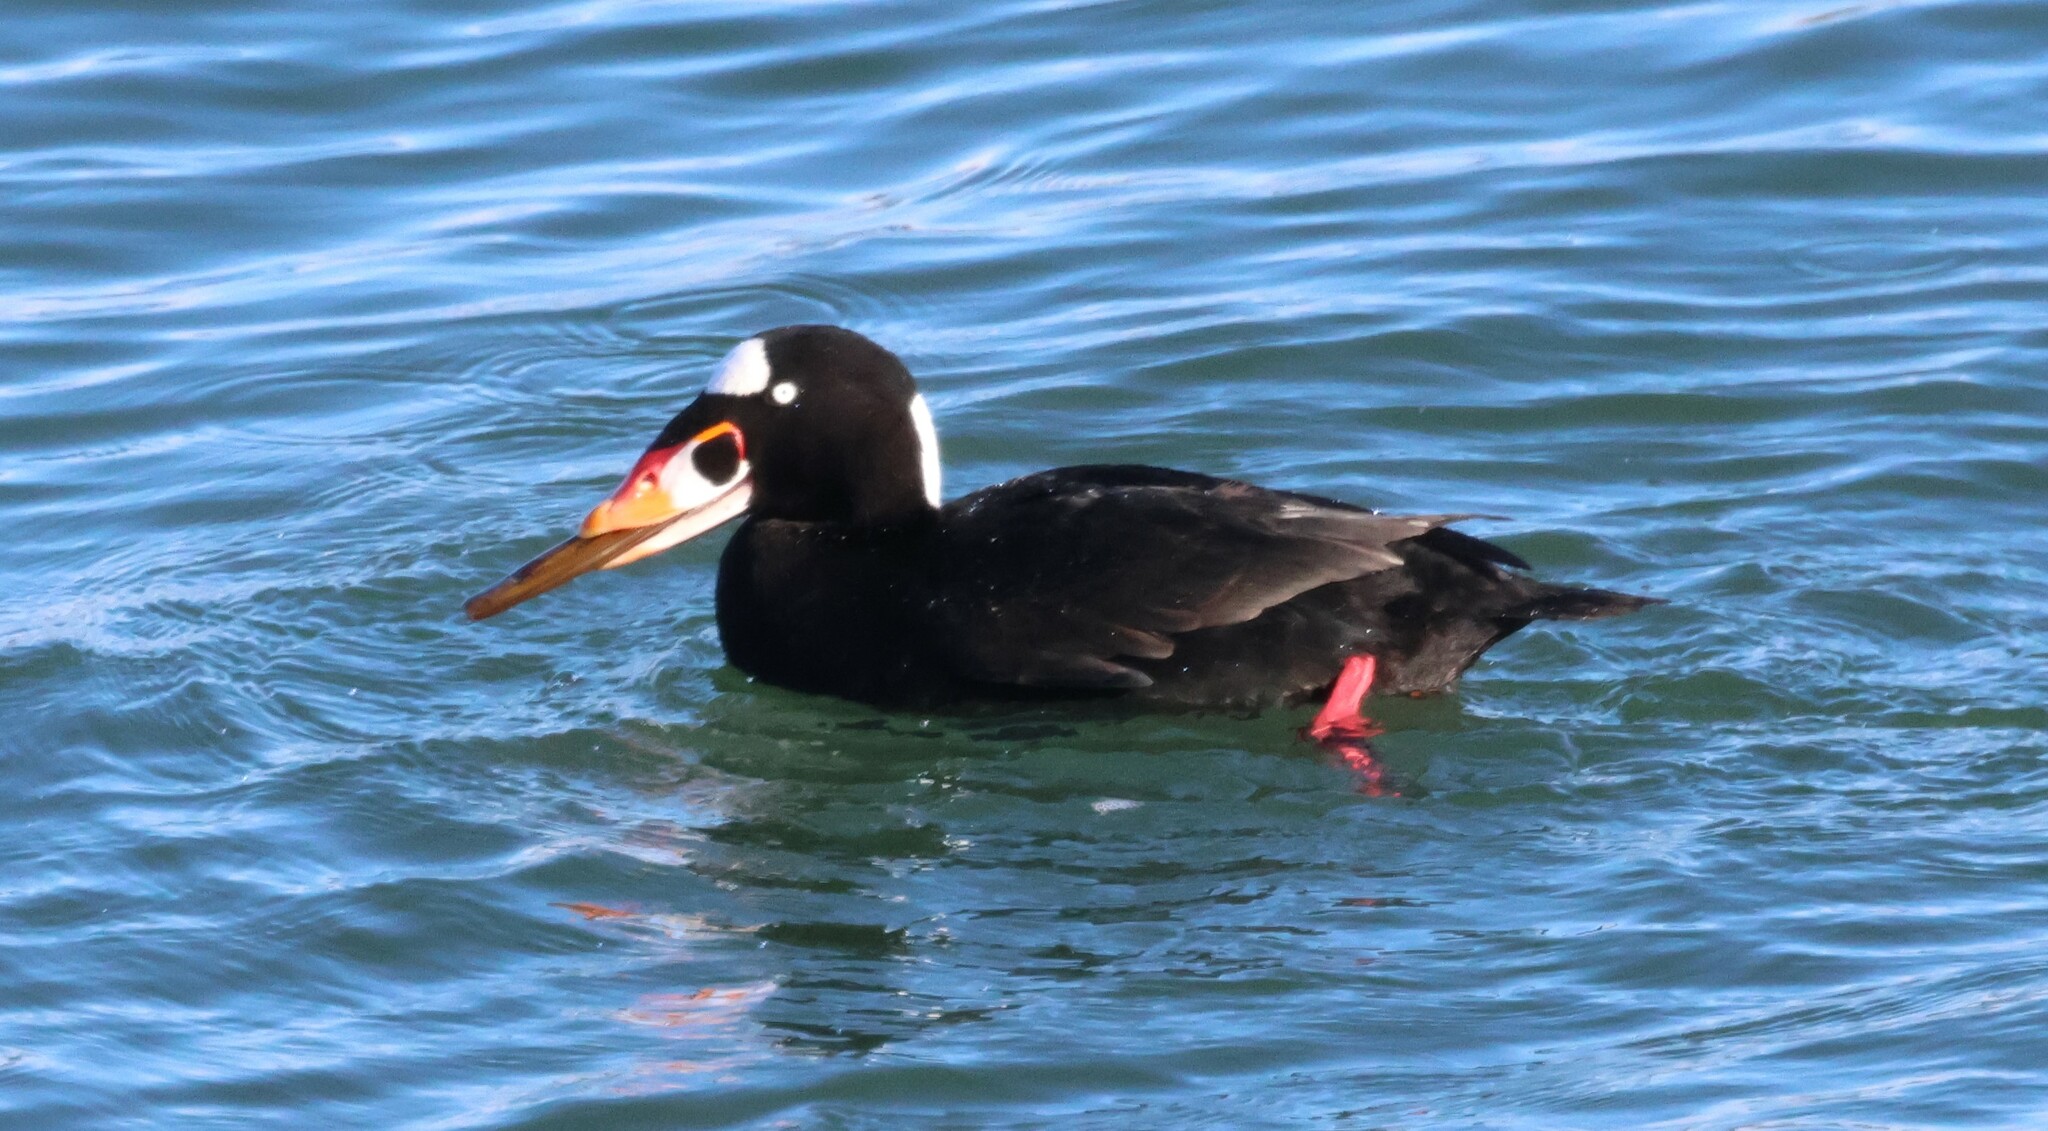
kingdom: Animalia
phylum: Chordata
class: Aves
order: Anseriformes
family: Anatidae
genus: Melanitta
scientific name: Melanitta perspicillata
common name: Surf scoter
